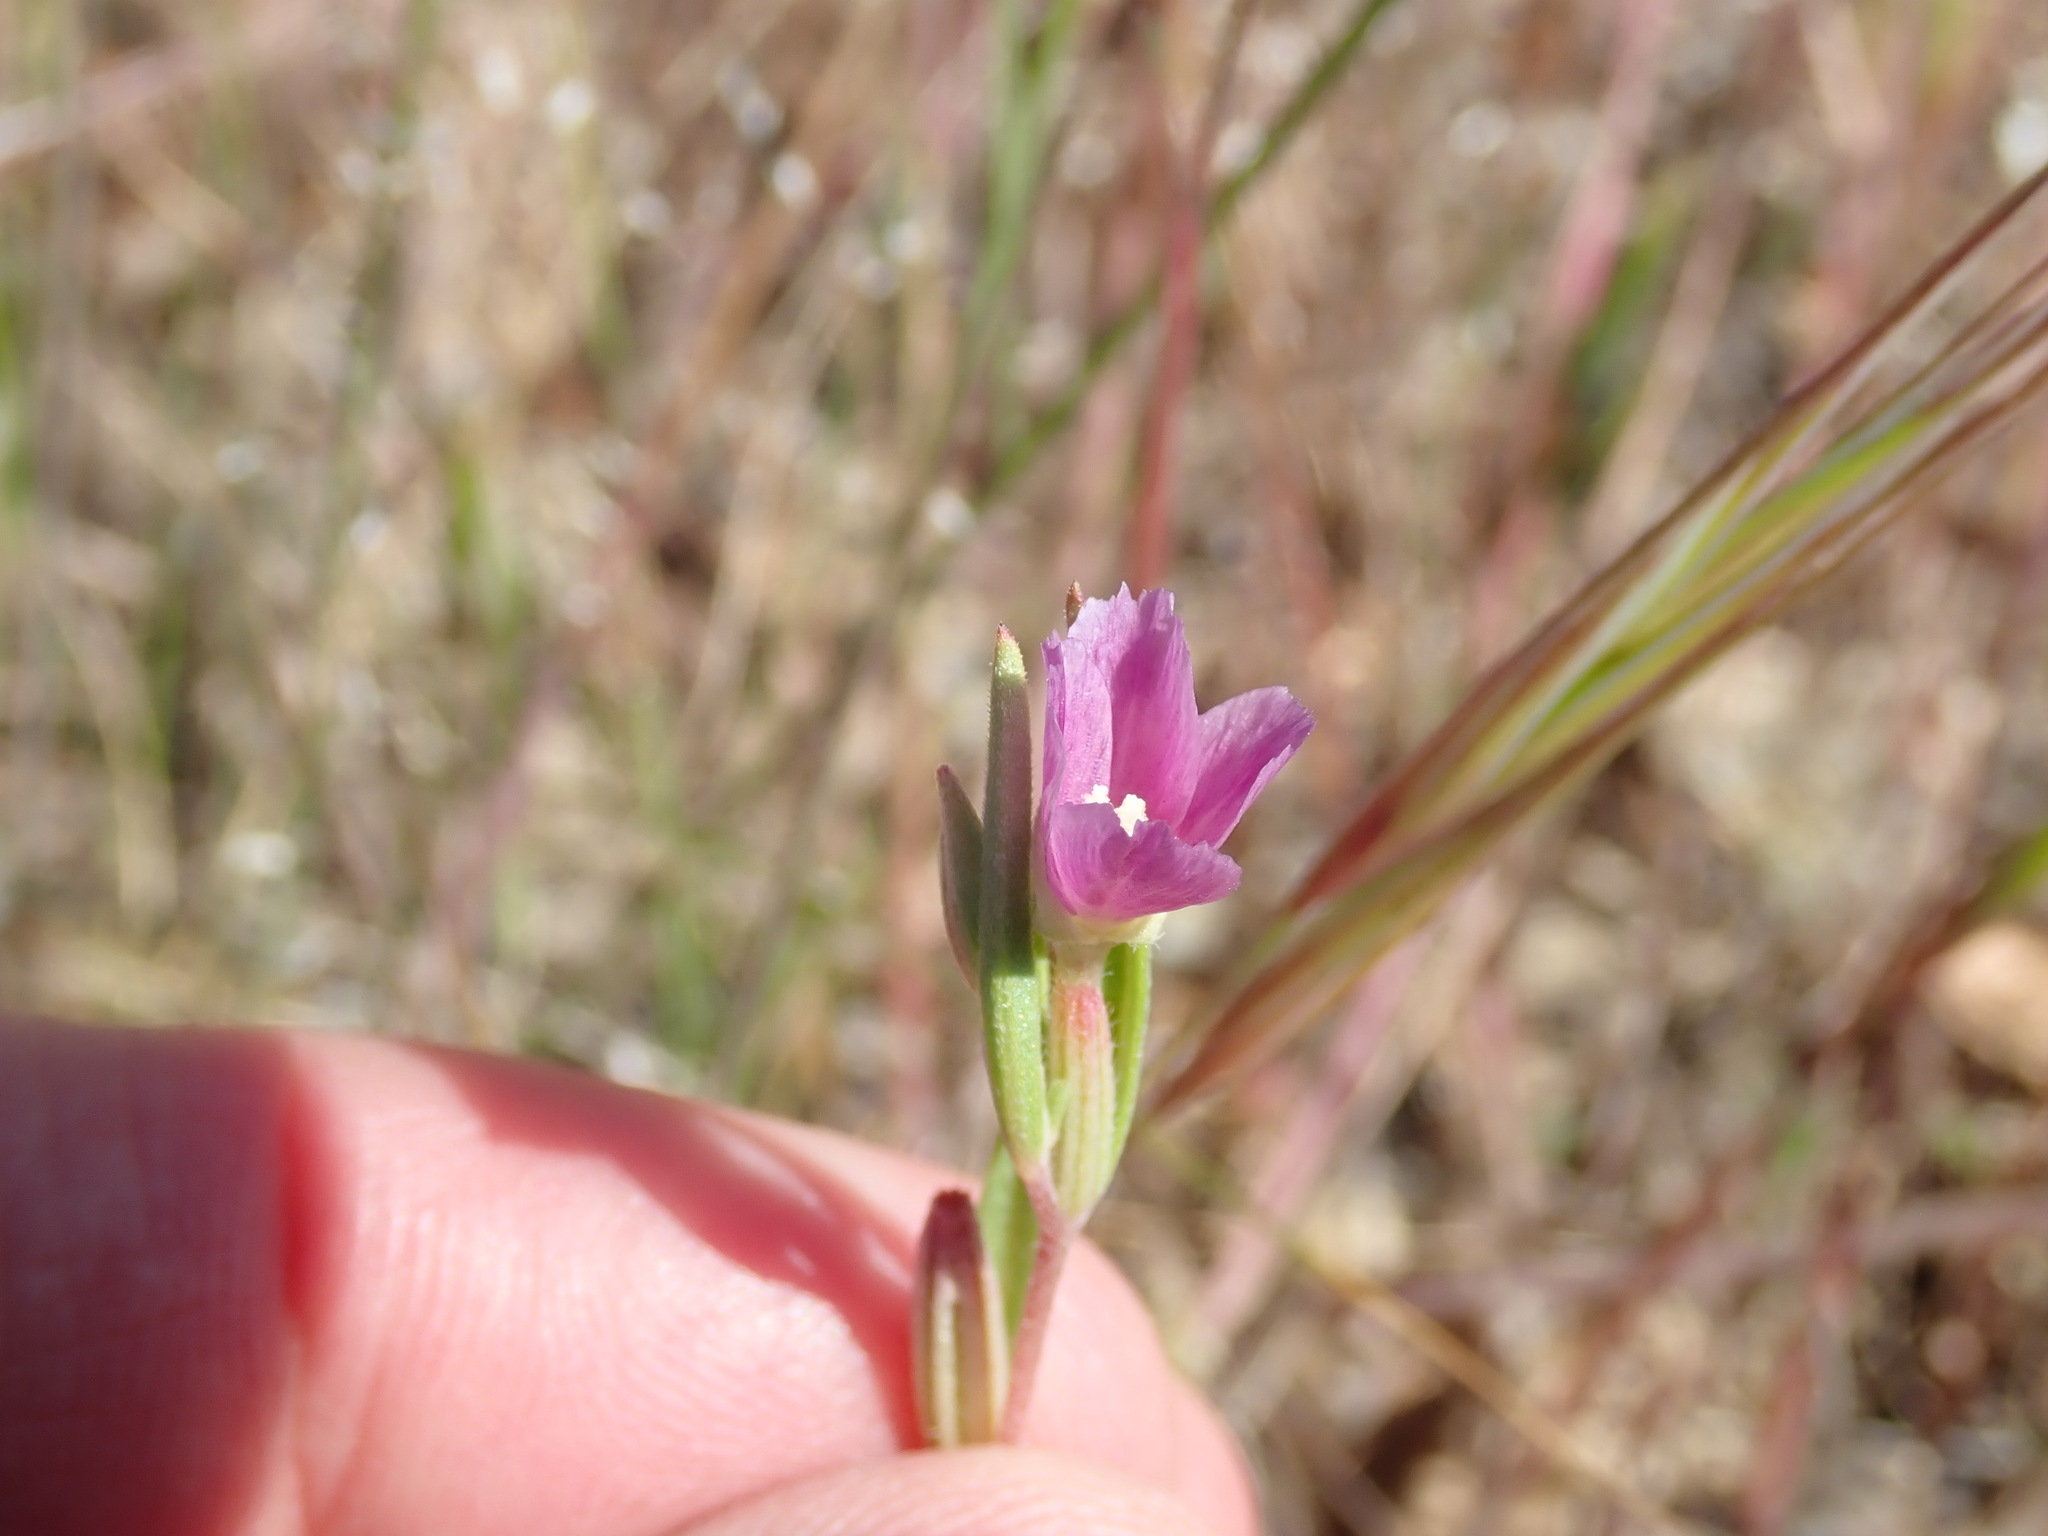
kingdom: Plantae
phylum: Tracheophyta
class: Magnoliopsida
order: Myrtales
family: Onagraceae
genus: Clarkia
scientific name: Clarkia purpurea
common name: Purple clarkia
